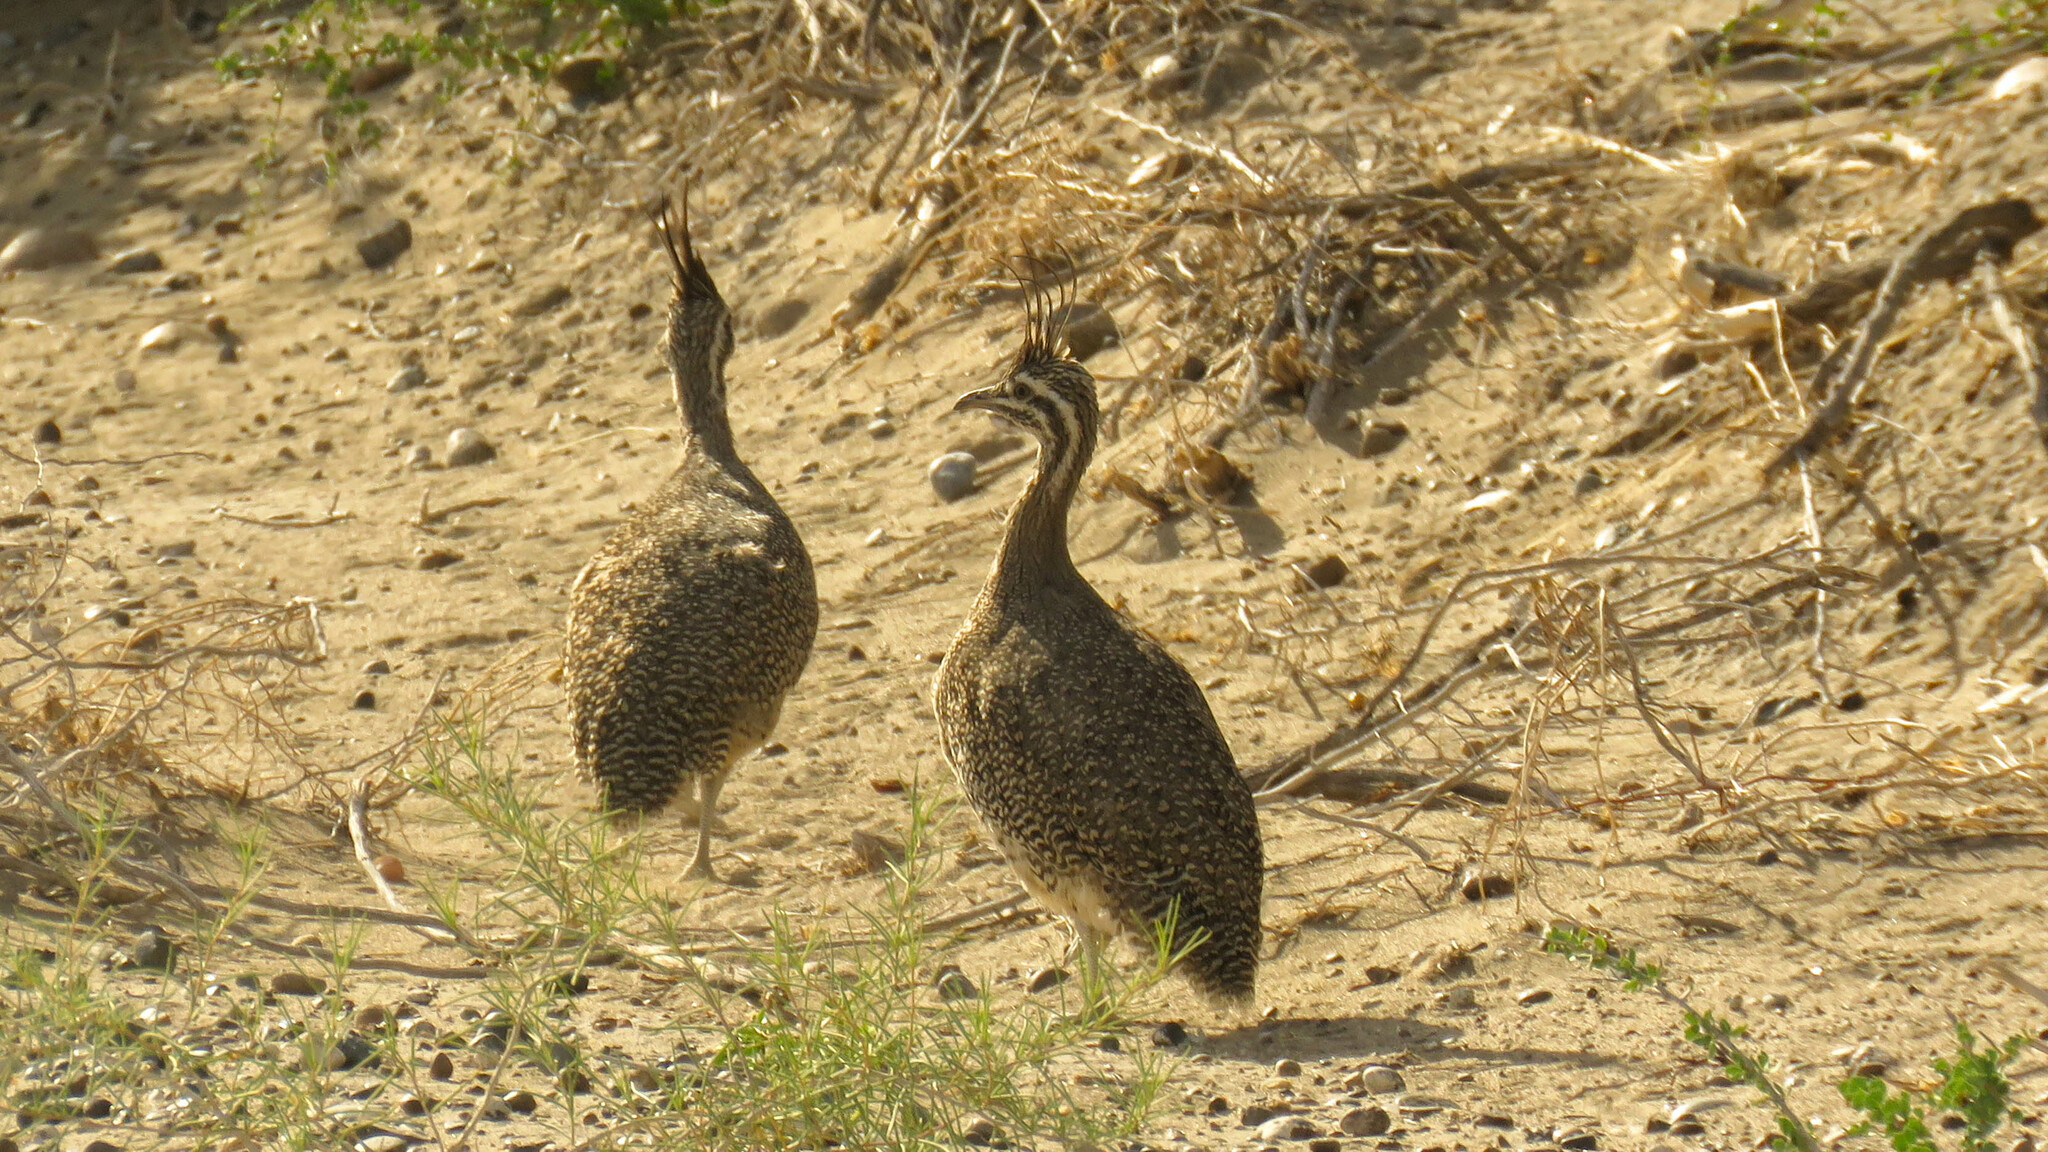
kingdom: Animalia
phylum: Chordata
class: Aves
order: Tinamiformes
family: Tinamidae
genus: Eudromia
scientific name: Eudromia elegans
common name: Elegant crested tinamou
